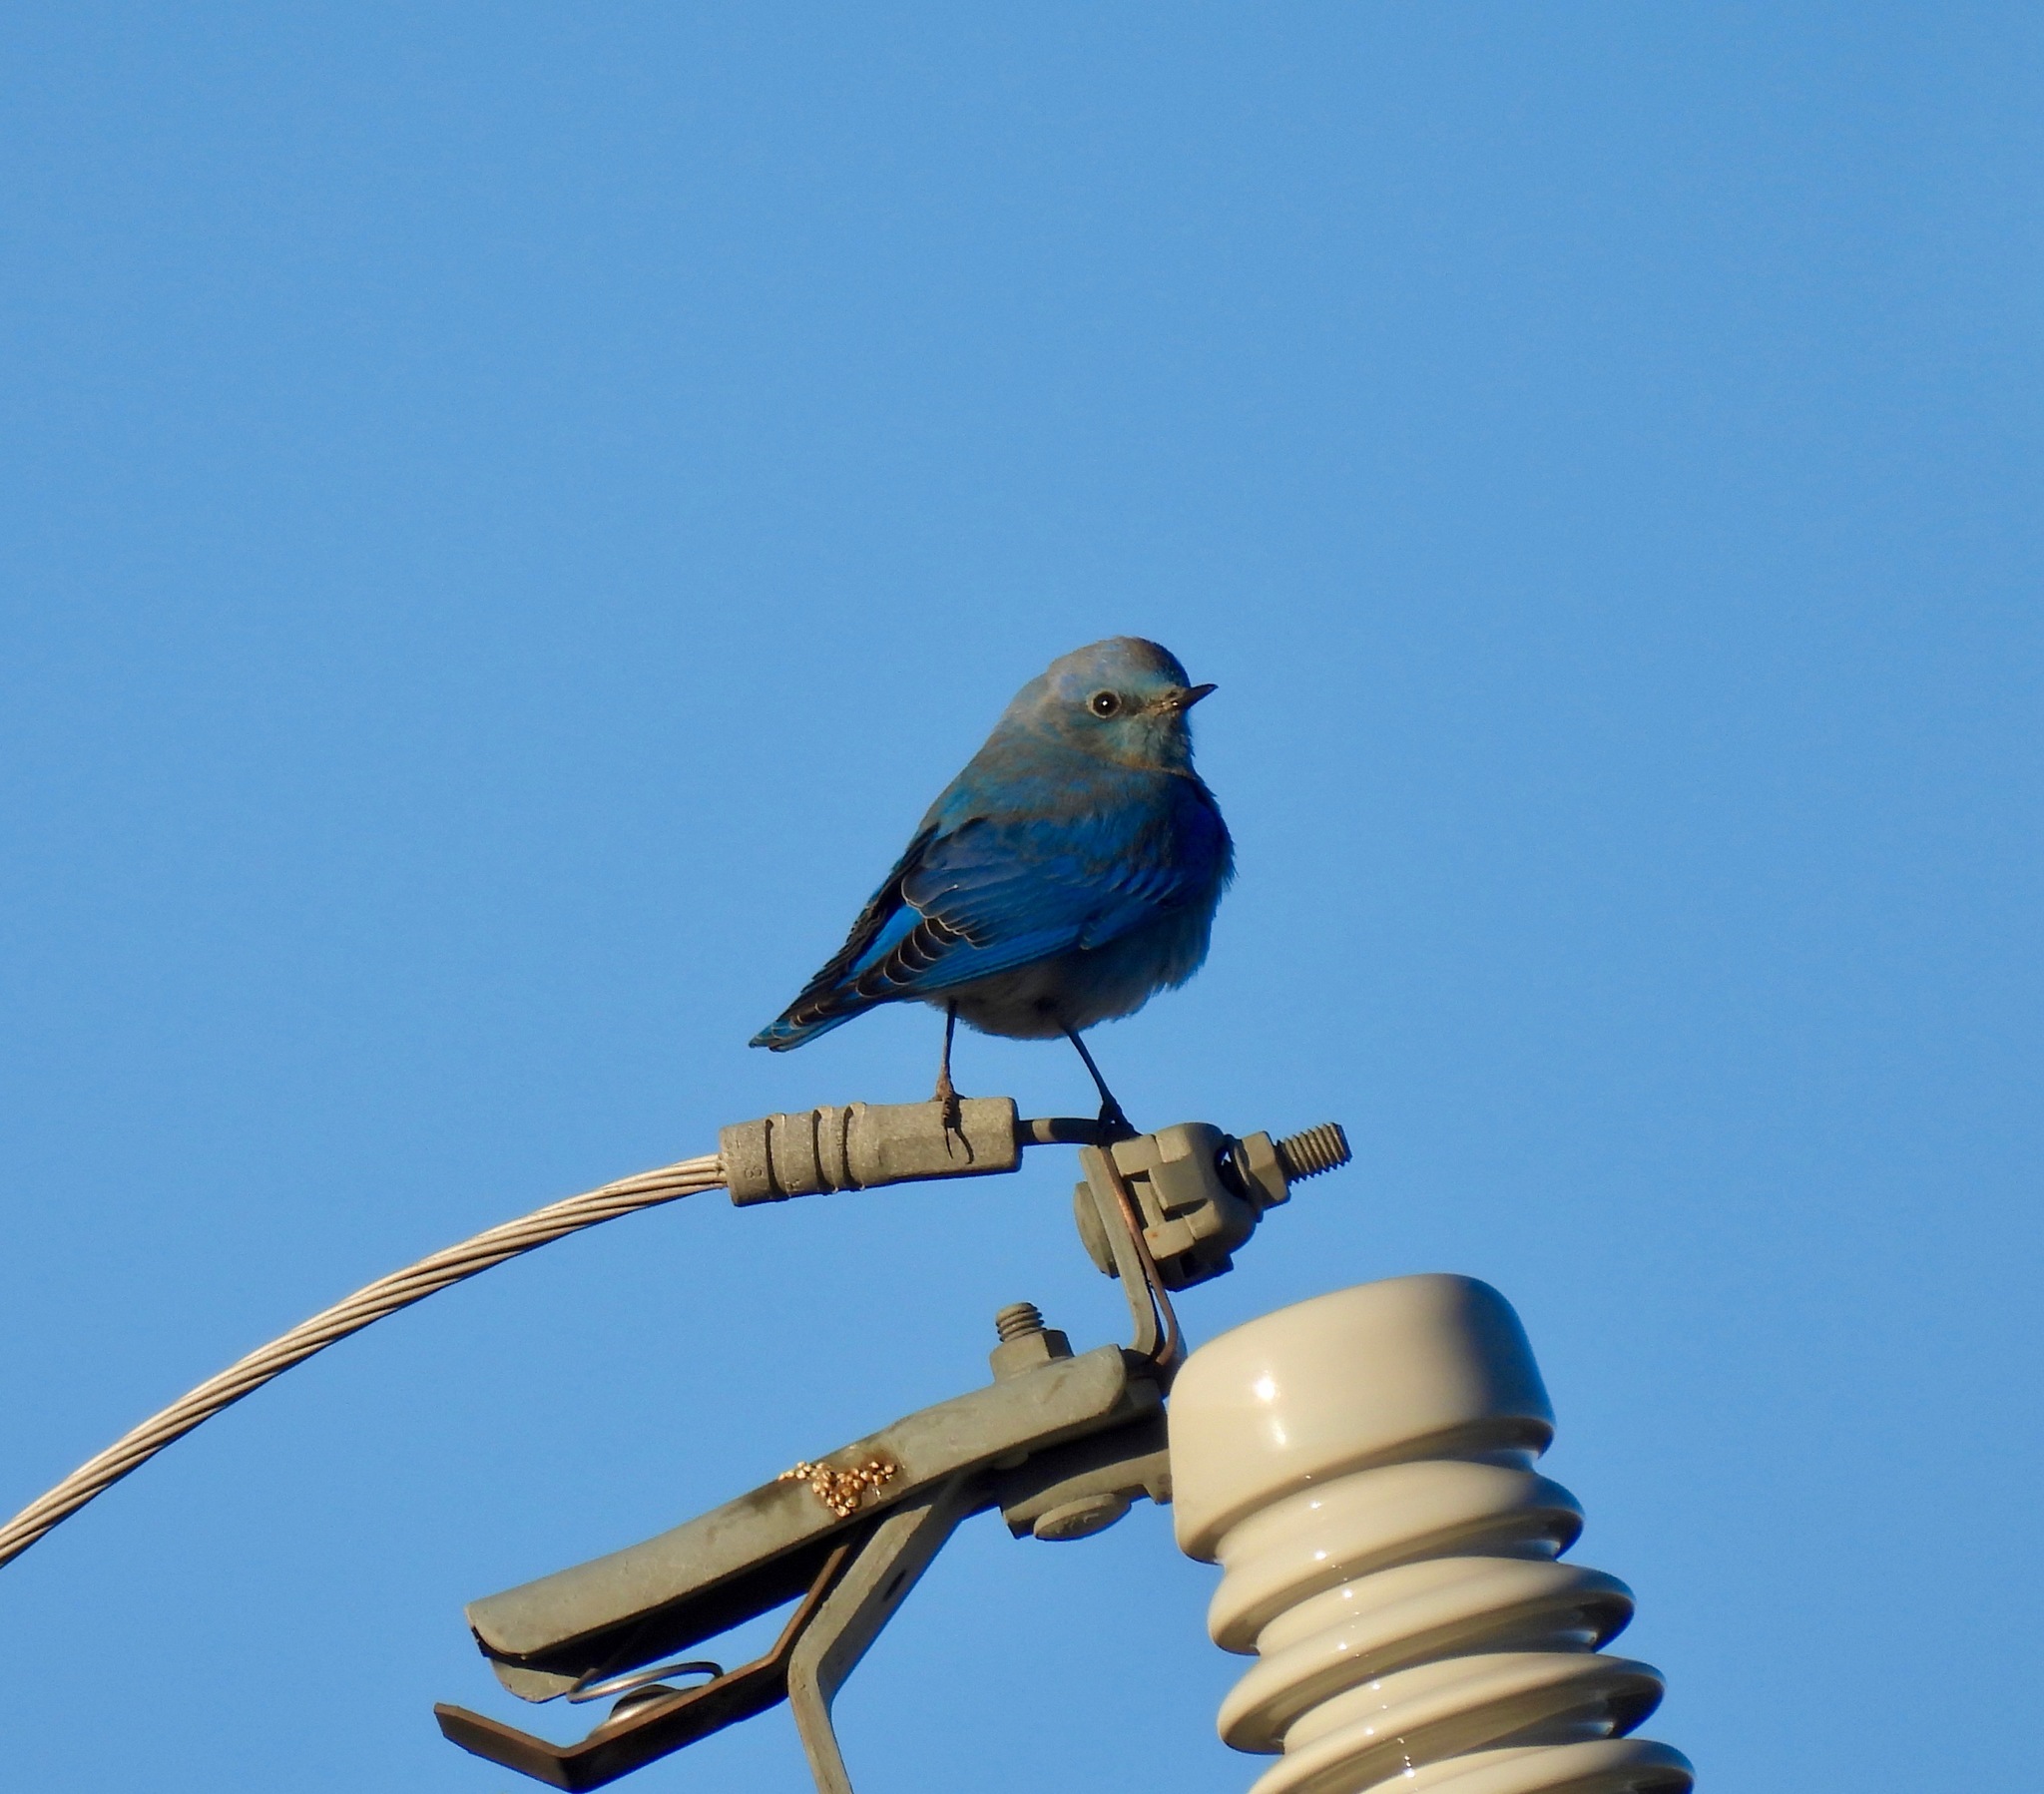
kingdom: Animalia
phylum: Chordata
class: Aves
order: Passeriformes
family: Turdidae
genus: Sialia
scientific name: Sialia currucoides
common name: Mountain bluebird
